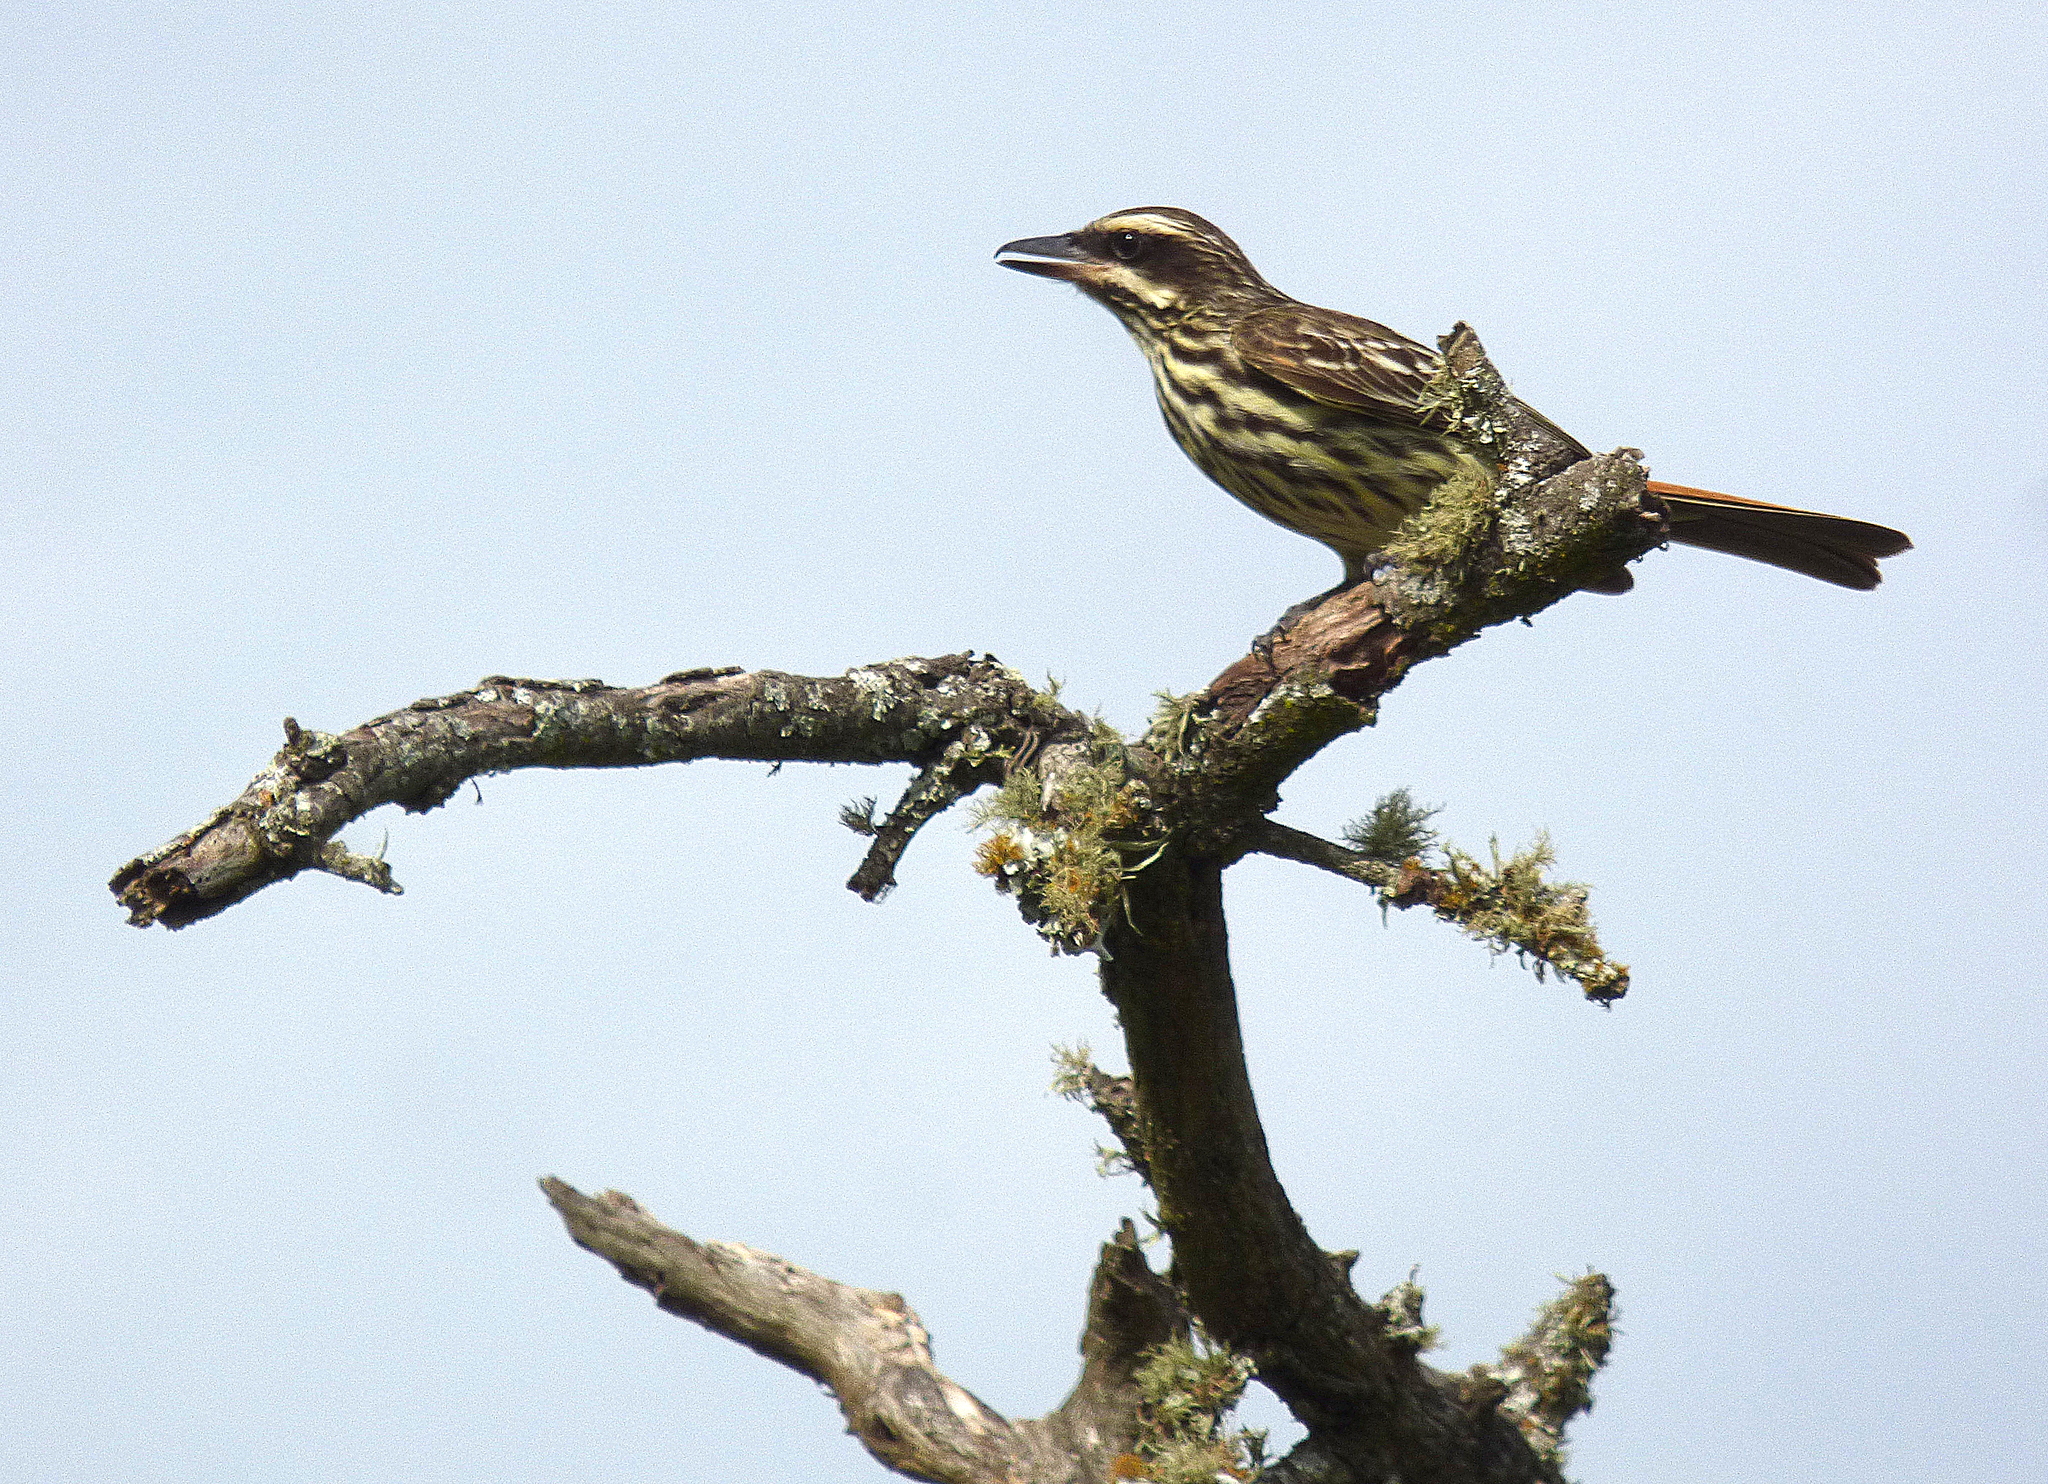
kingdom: Animalia
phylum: Chordata
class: Aves
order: Passeriformes
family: Tyrannidae
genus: Myiodynastes
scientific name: Myiodynastes maculatus
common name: Streaked flycatcher
